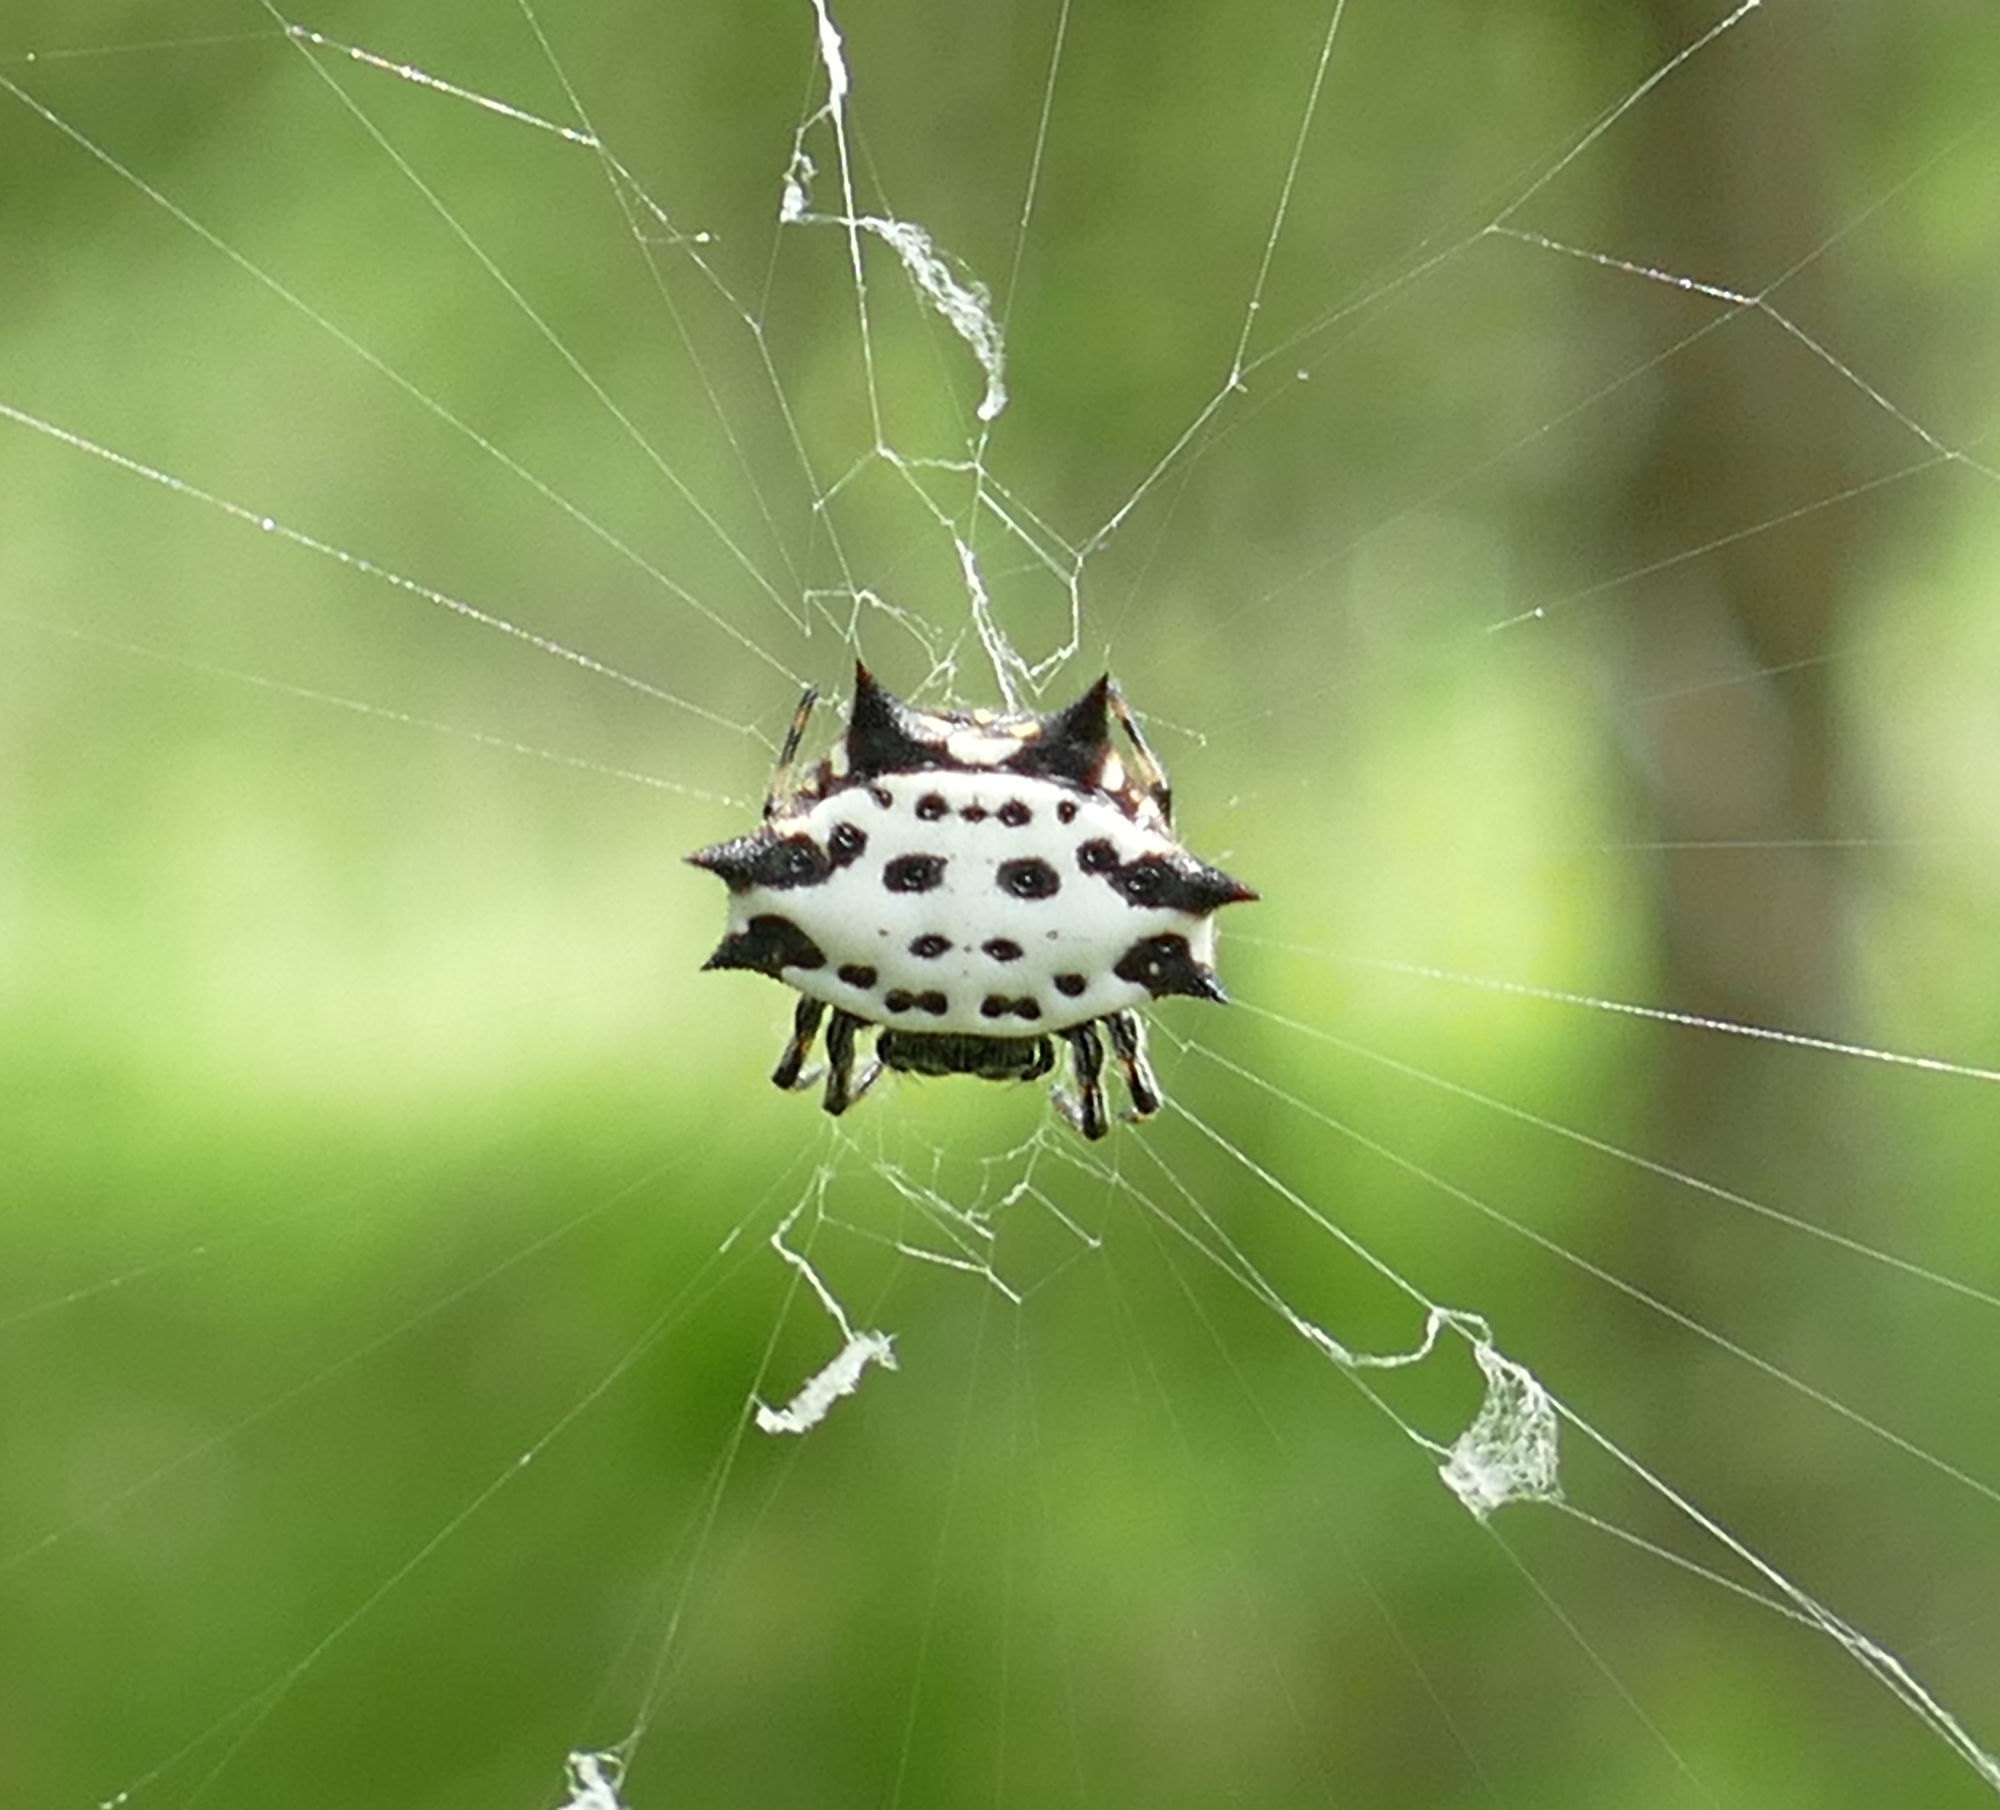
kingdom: Animalia
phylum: Arthropoda
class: Arachnida
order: Araneae
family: Araneidae
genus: Gasteracantha
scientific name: Gasteracantha cancriformis
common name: Orb weavers
